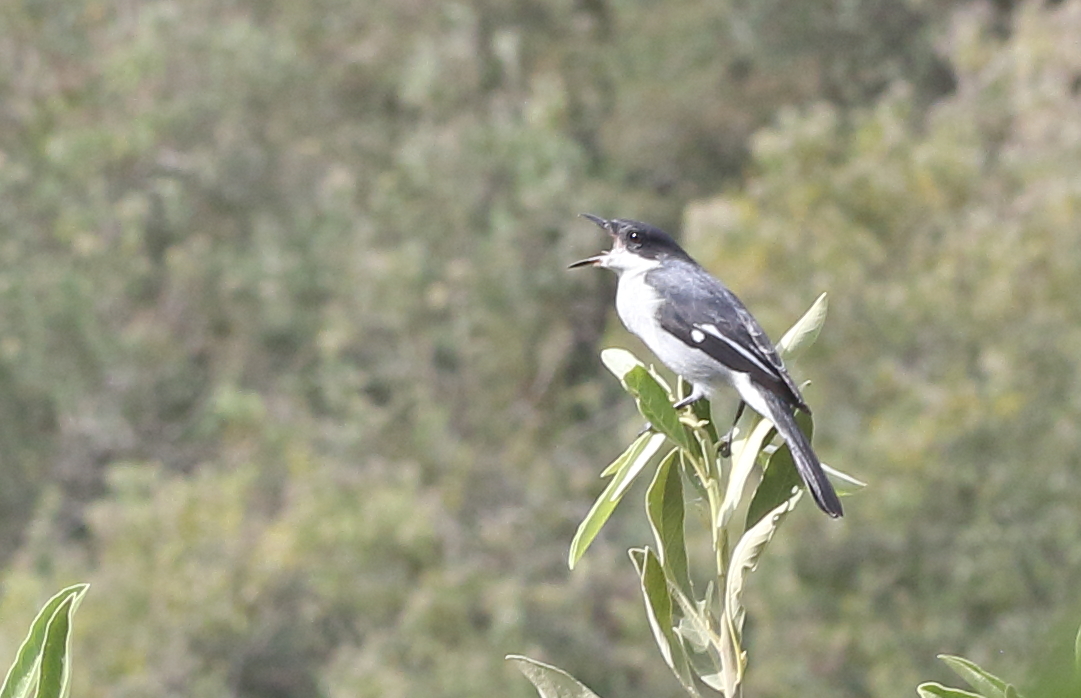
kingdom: Animalia
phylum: Chordata
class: Aves
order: Passeriformes
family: Muscicapidae
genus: Sigelus
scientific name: Sigelus silens
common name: Fiscal flycatcher
